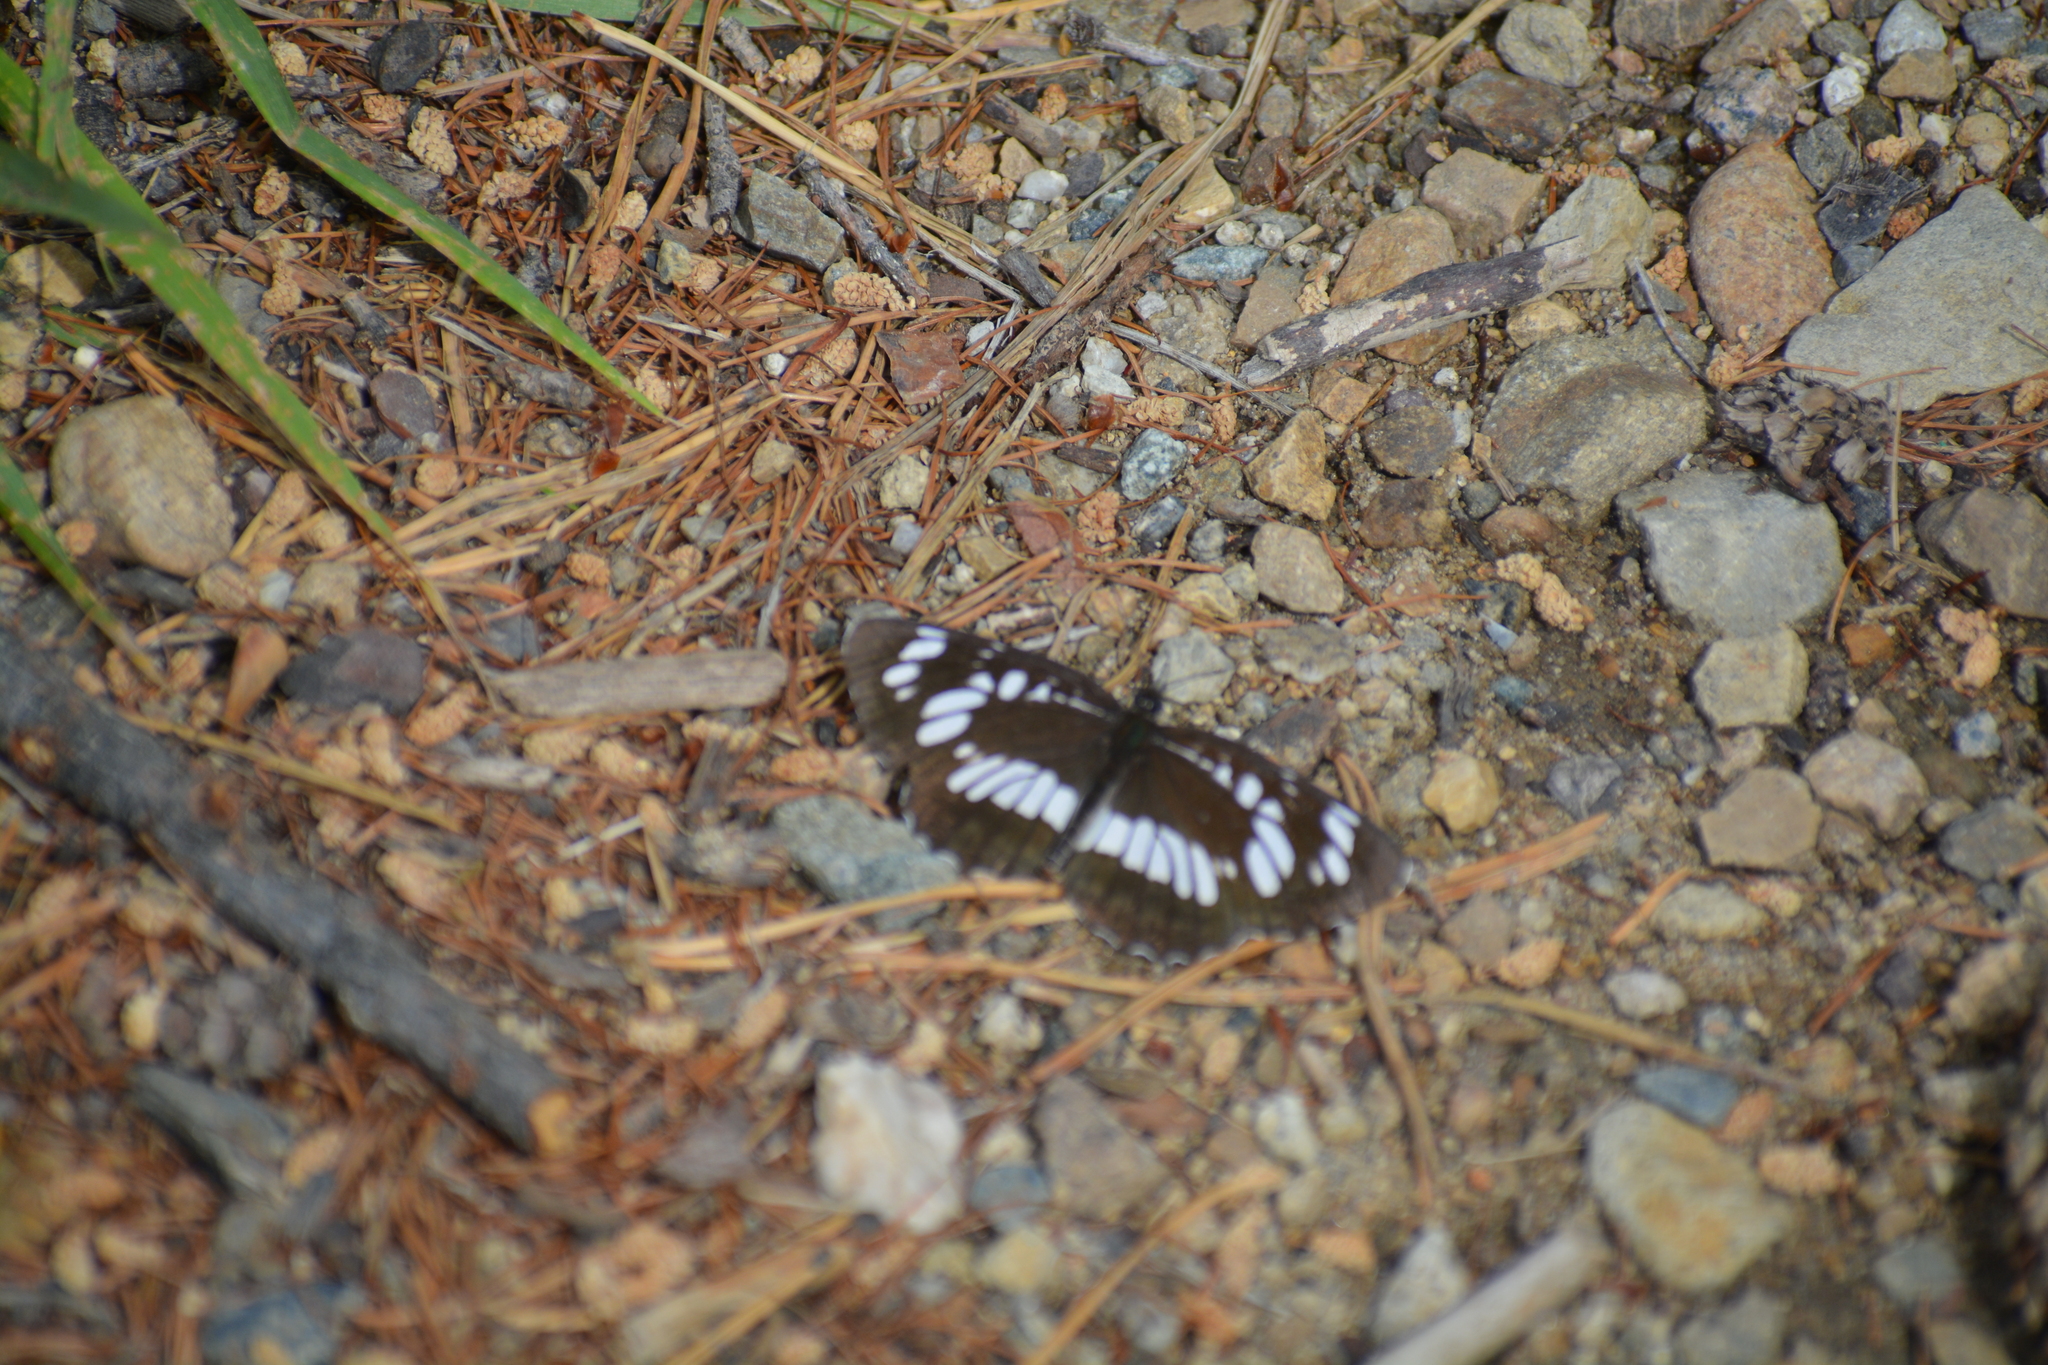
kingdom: Animalia
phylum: Arthropoda
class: Insecta
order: Lepidoptera
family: Nymphalidae
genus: Neptis
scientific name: Neptis rivularis
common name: Hungarian glider
